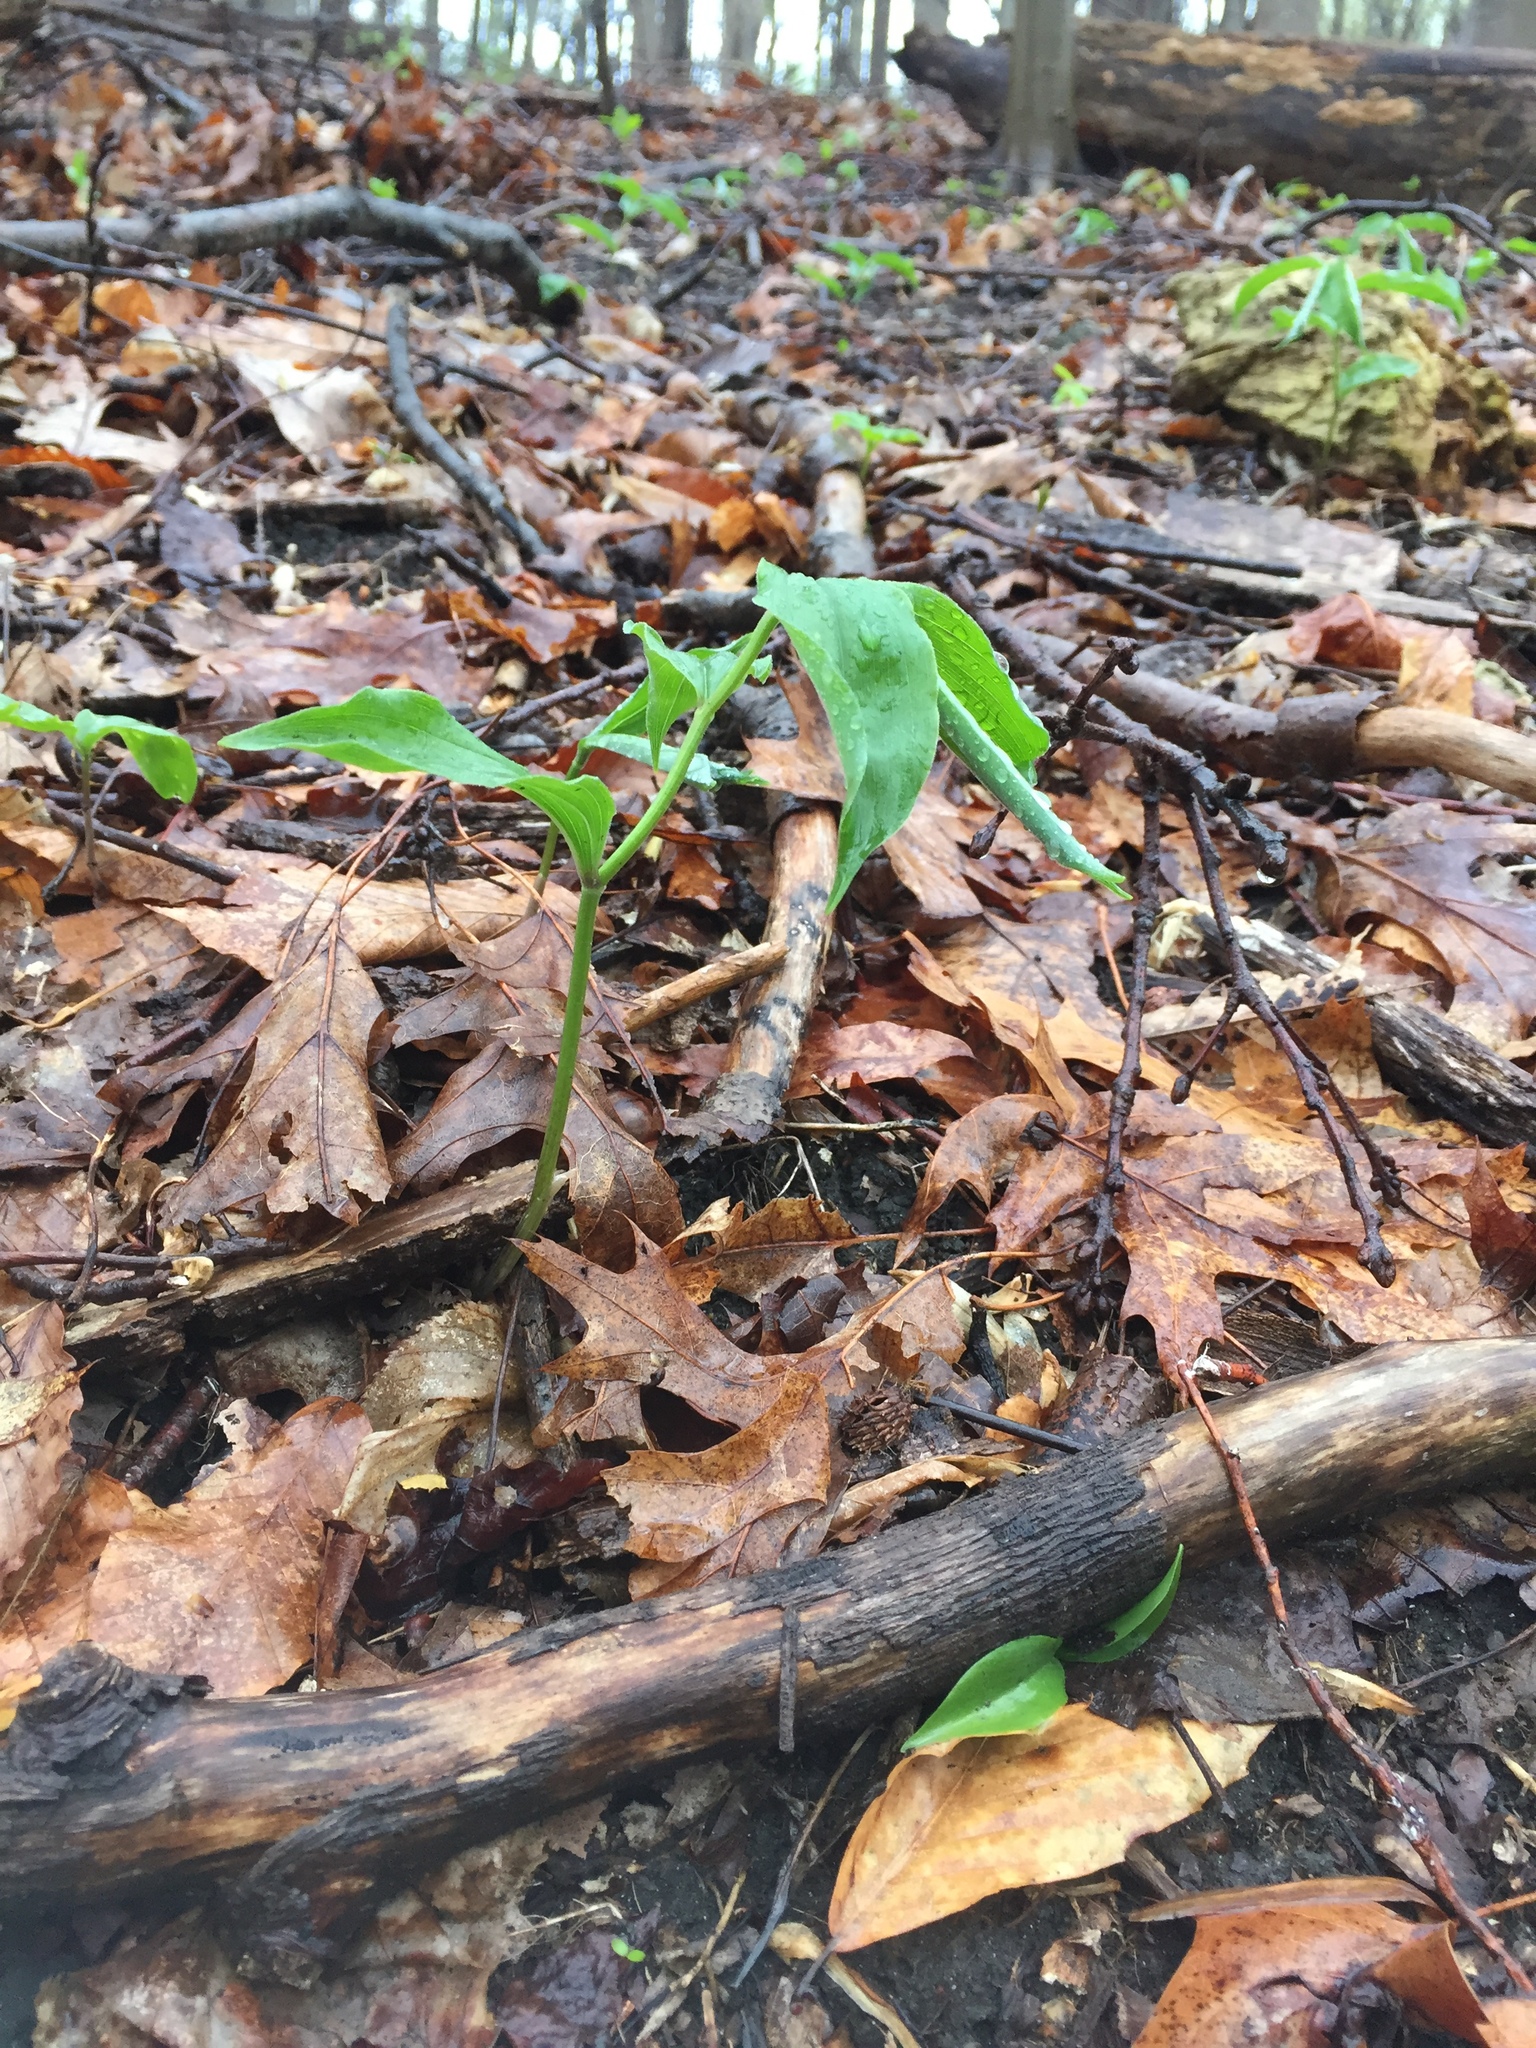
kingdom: Plantae
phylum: Tracheophyta
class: Liliopsida
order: Asparagales
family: Asparagaceae
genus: Maianthemum
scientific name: Maianthemum racemosum
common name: False spikenard
